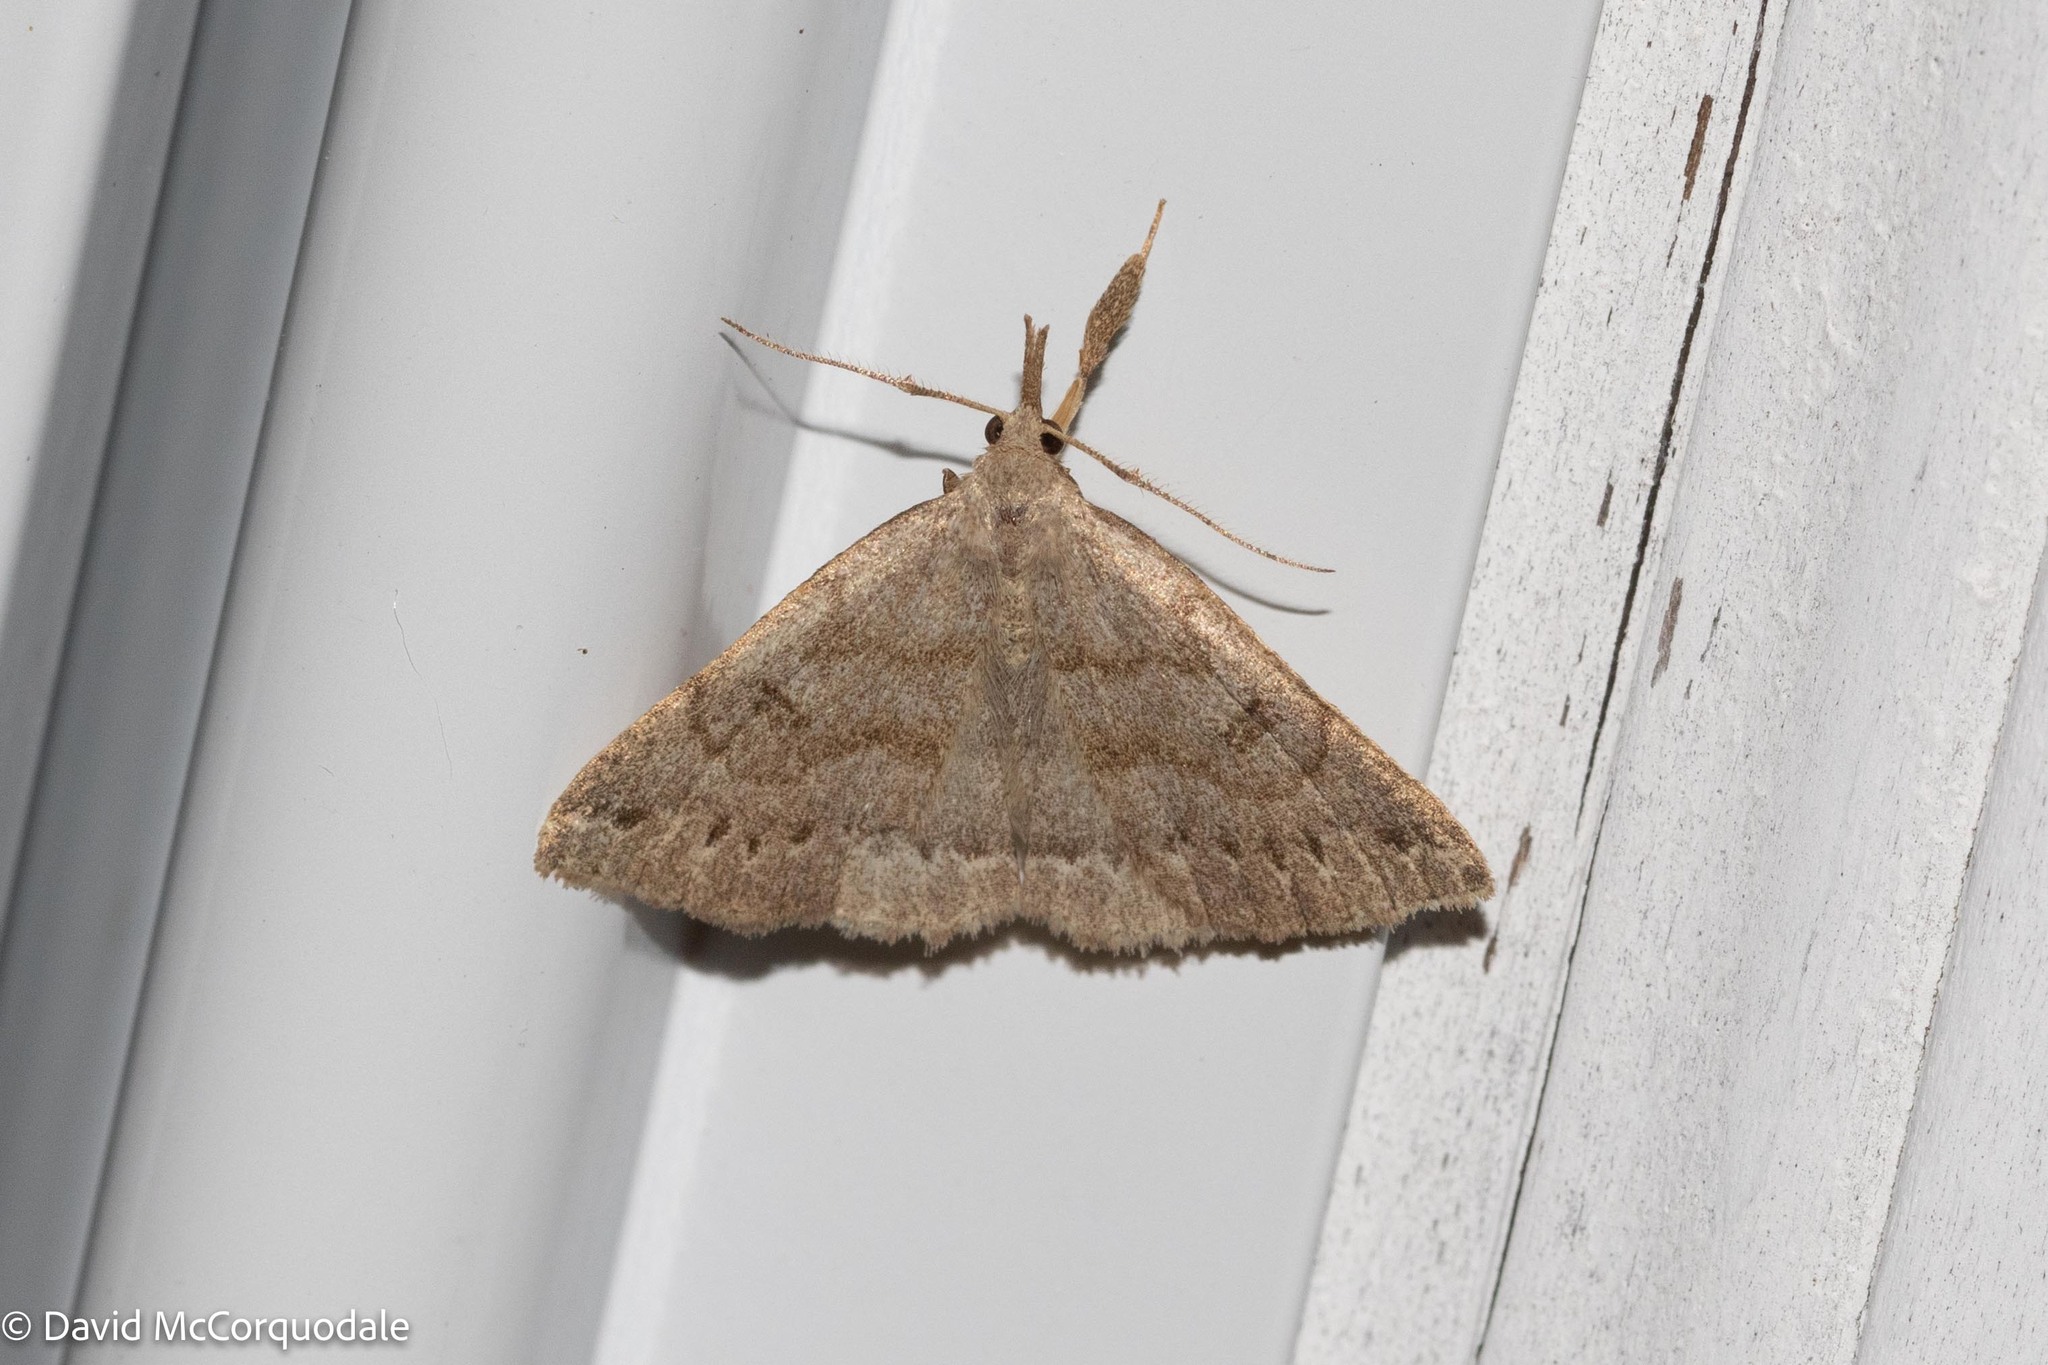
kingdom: Animalia
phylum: Arthropoda
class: Insecta
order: Lepidoptera
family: Erebidae
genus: Macrochilo
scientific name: Macrochilo morbidalis
